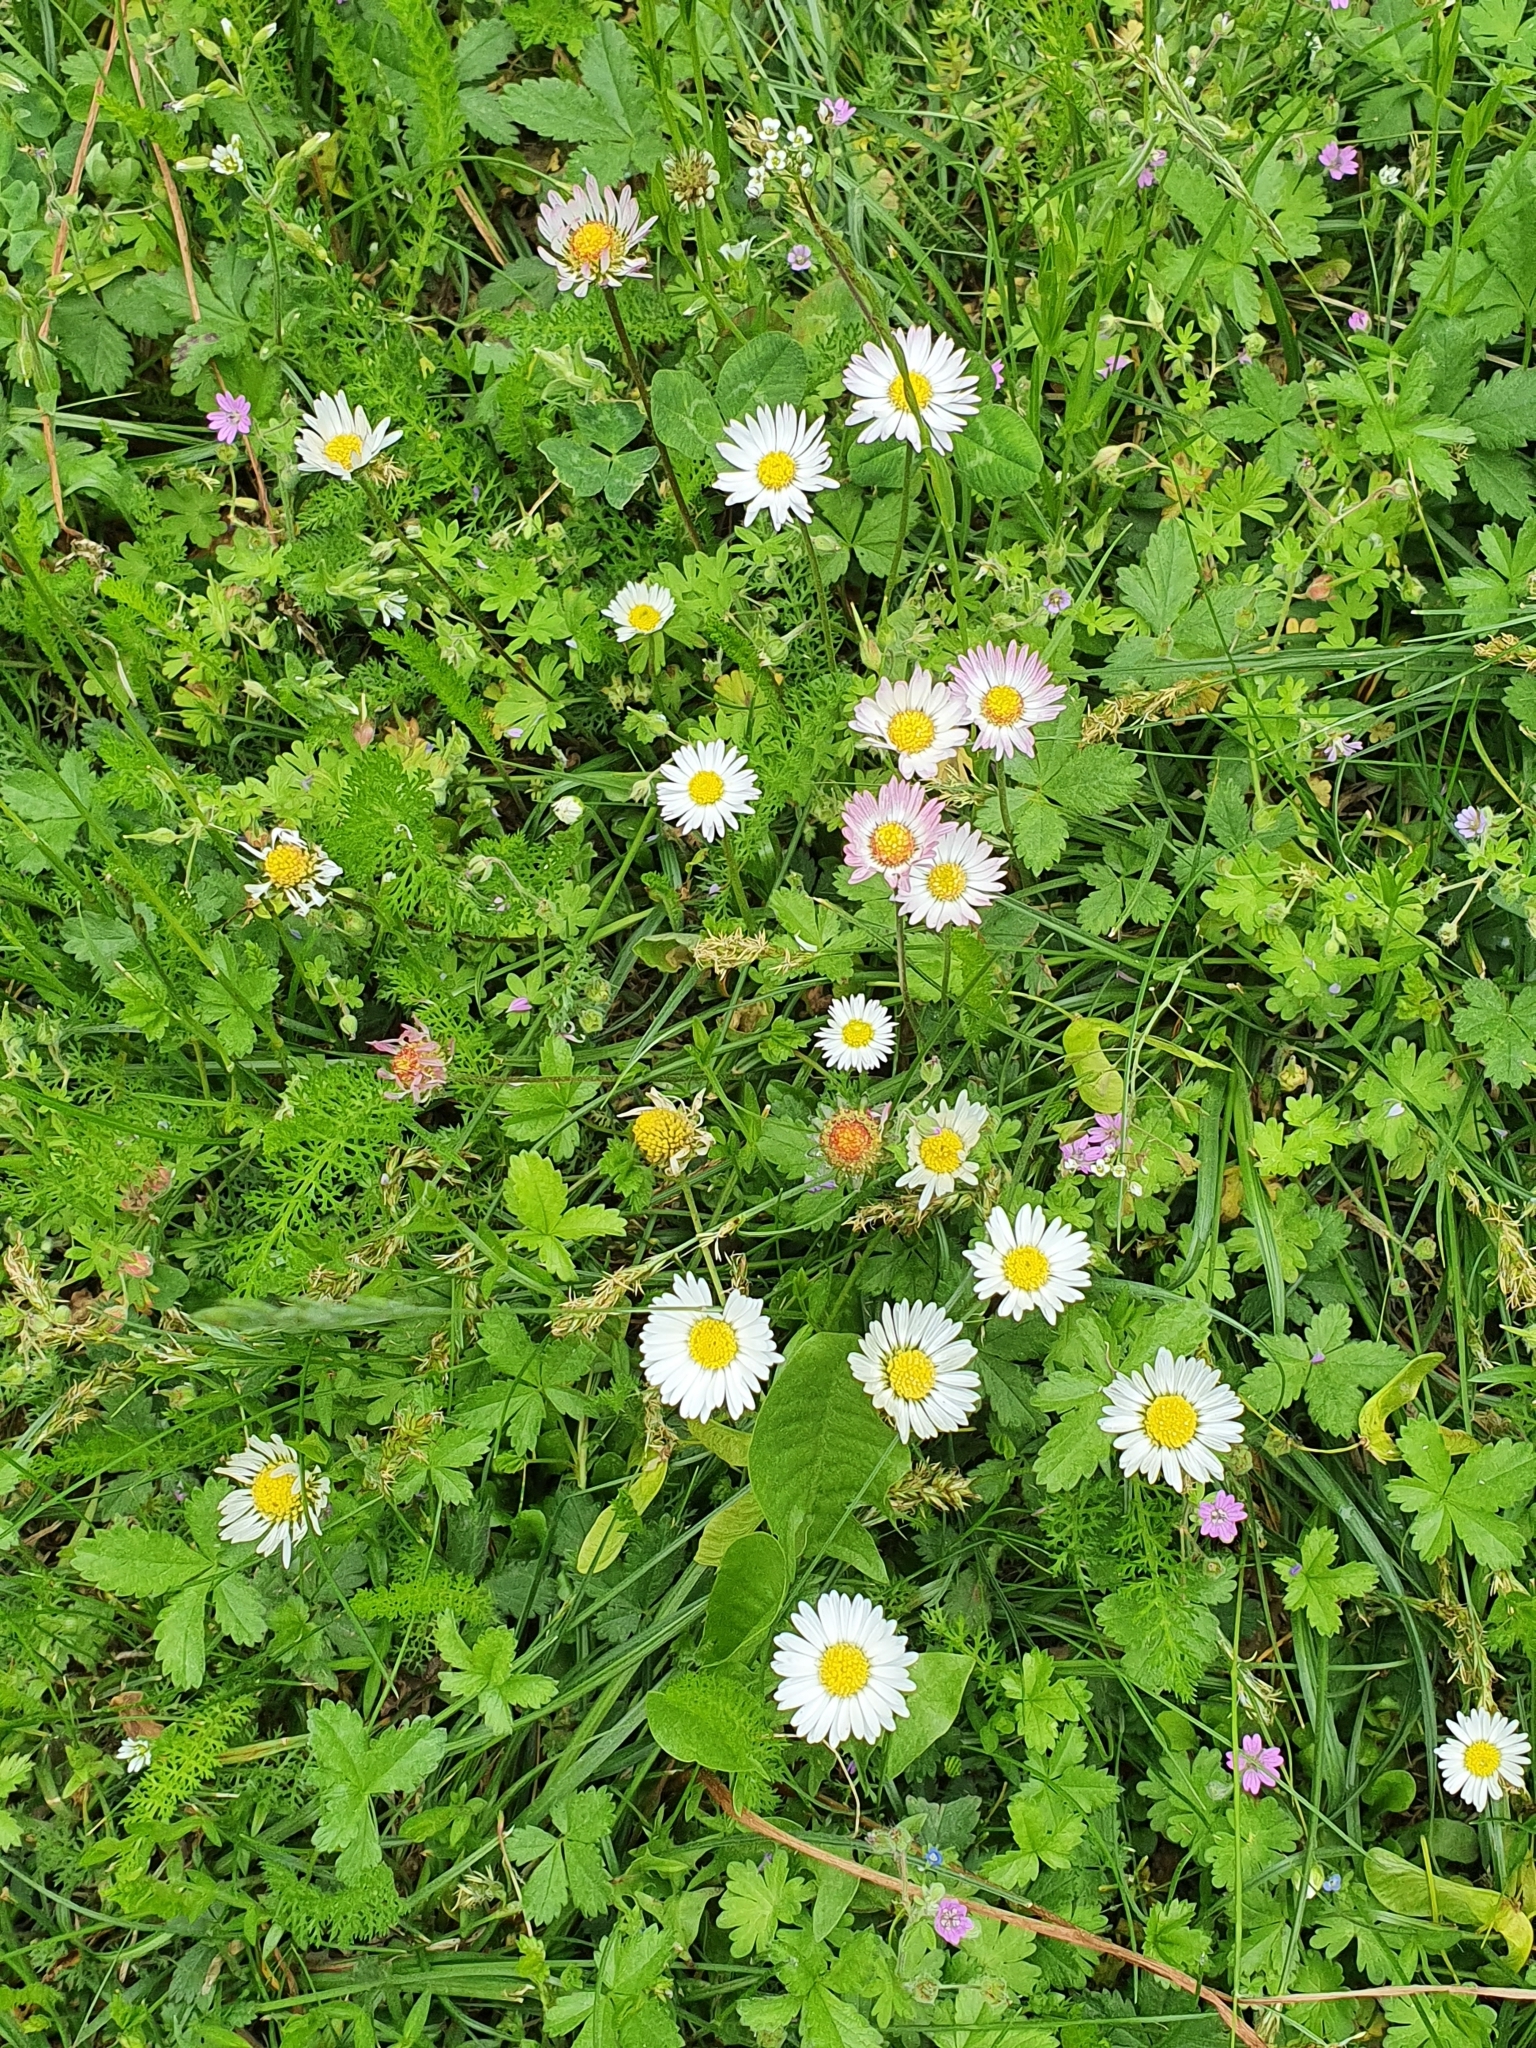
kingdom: Plantae
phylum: Tracheophyta
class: Magnoliopsida
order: Asterales
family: Asteraceae
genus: Bellis
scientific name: Bellis perennis
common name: Lawndaisy
